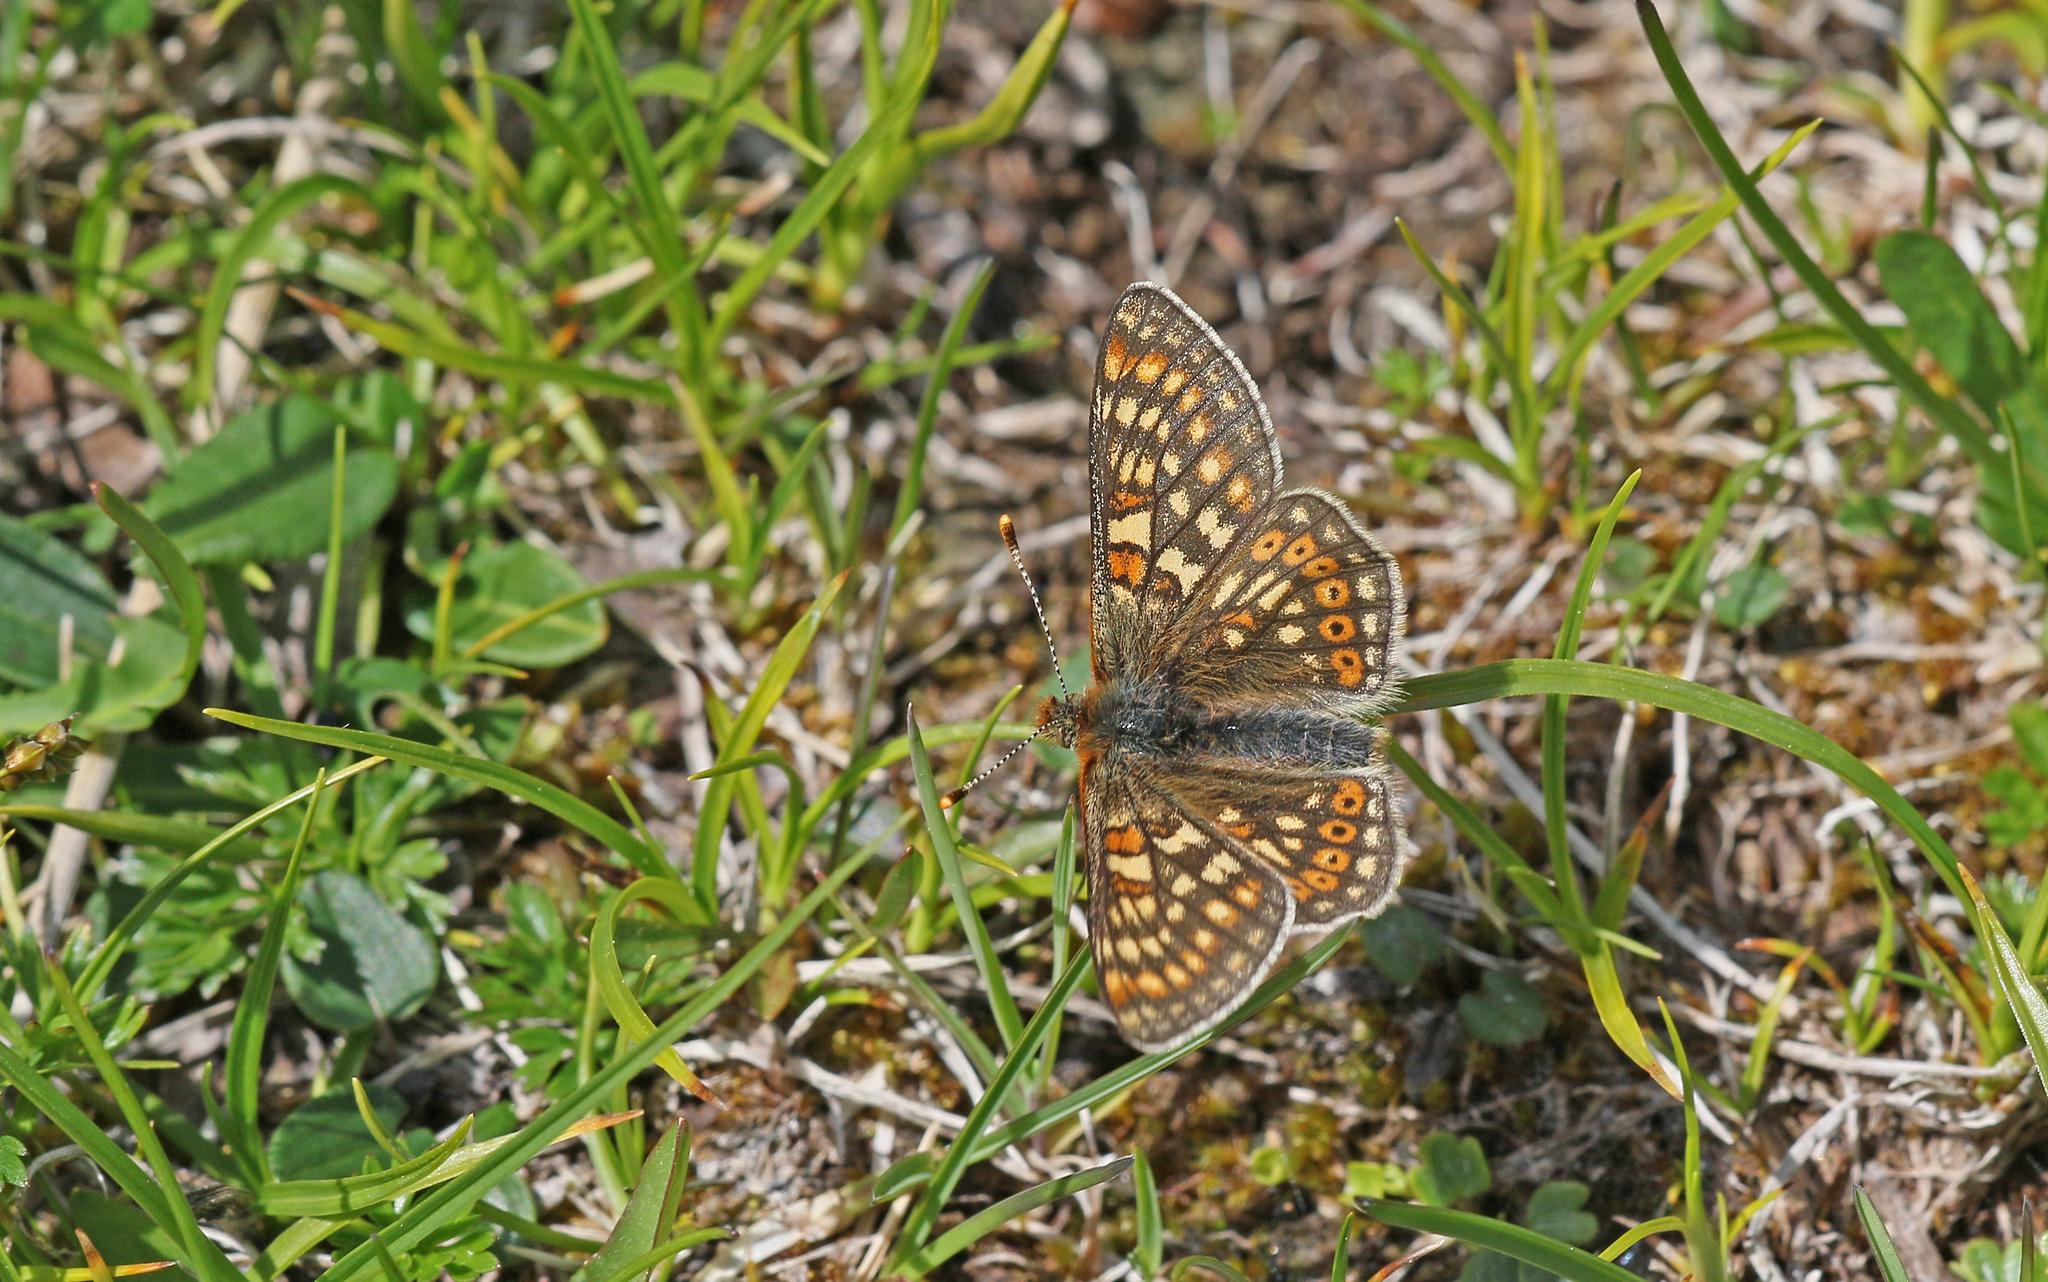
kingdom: Animalia
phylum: Arthropoda
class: Insecta
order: Lepidoptera
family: Nymphalidae
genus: Euphydryas
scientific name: Euphydryas aurinia
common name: Marsh fritillary
